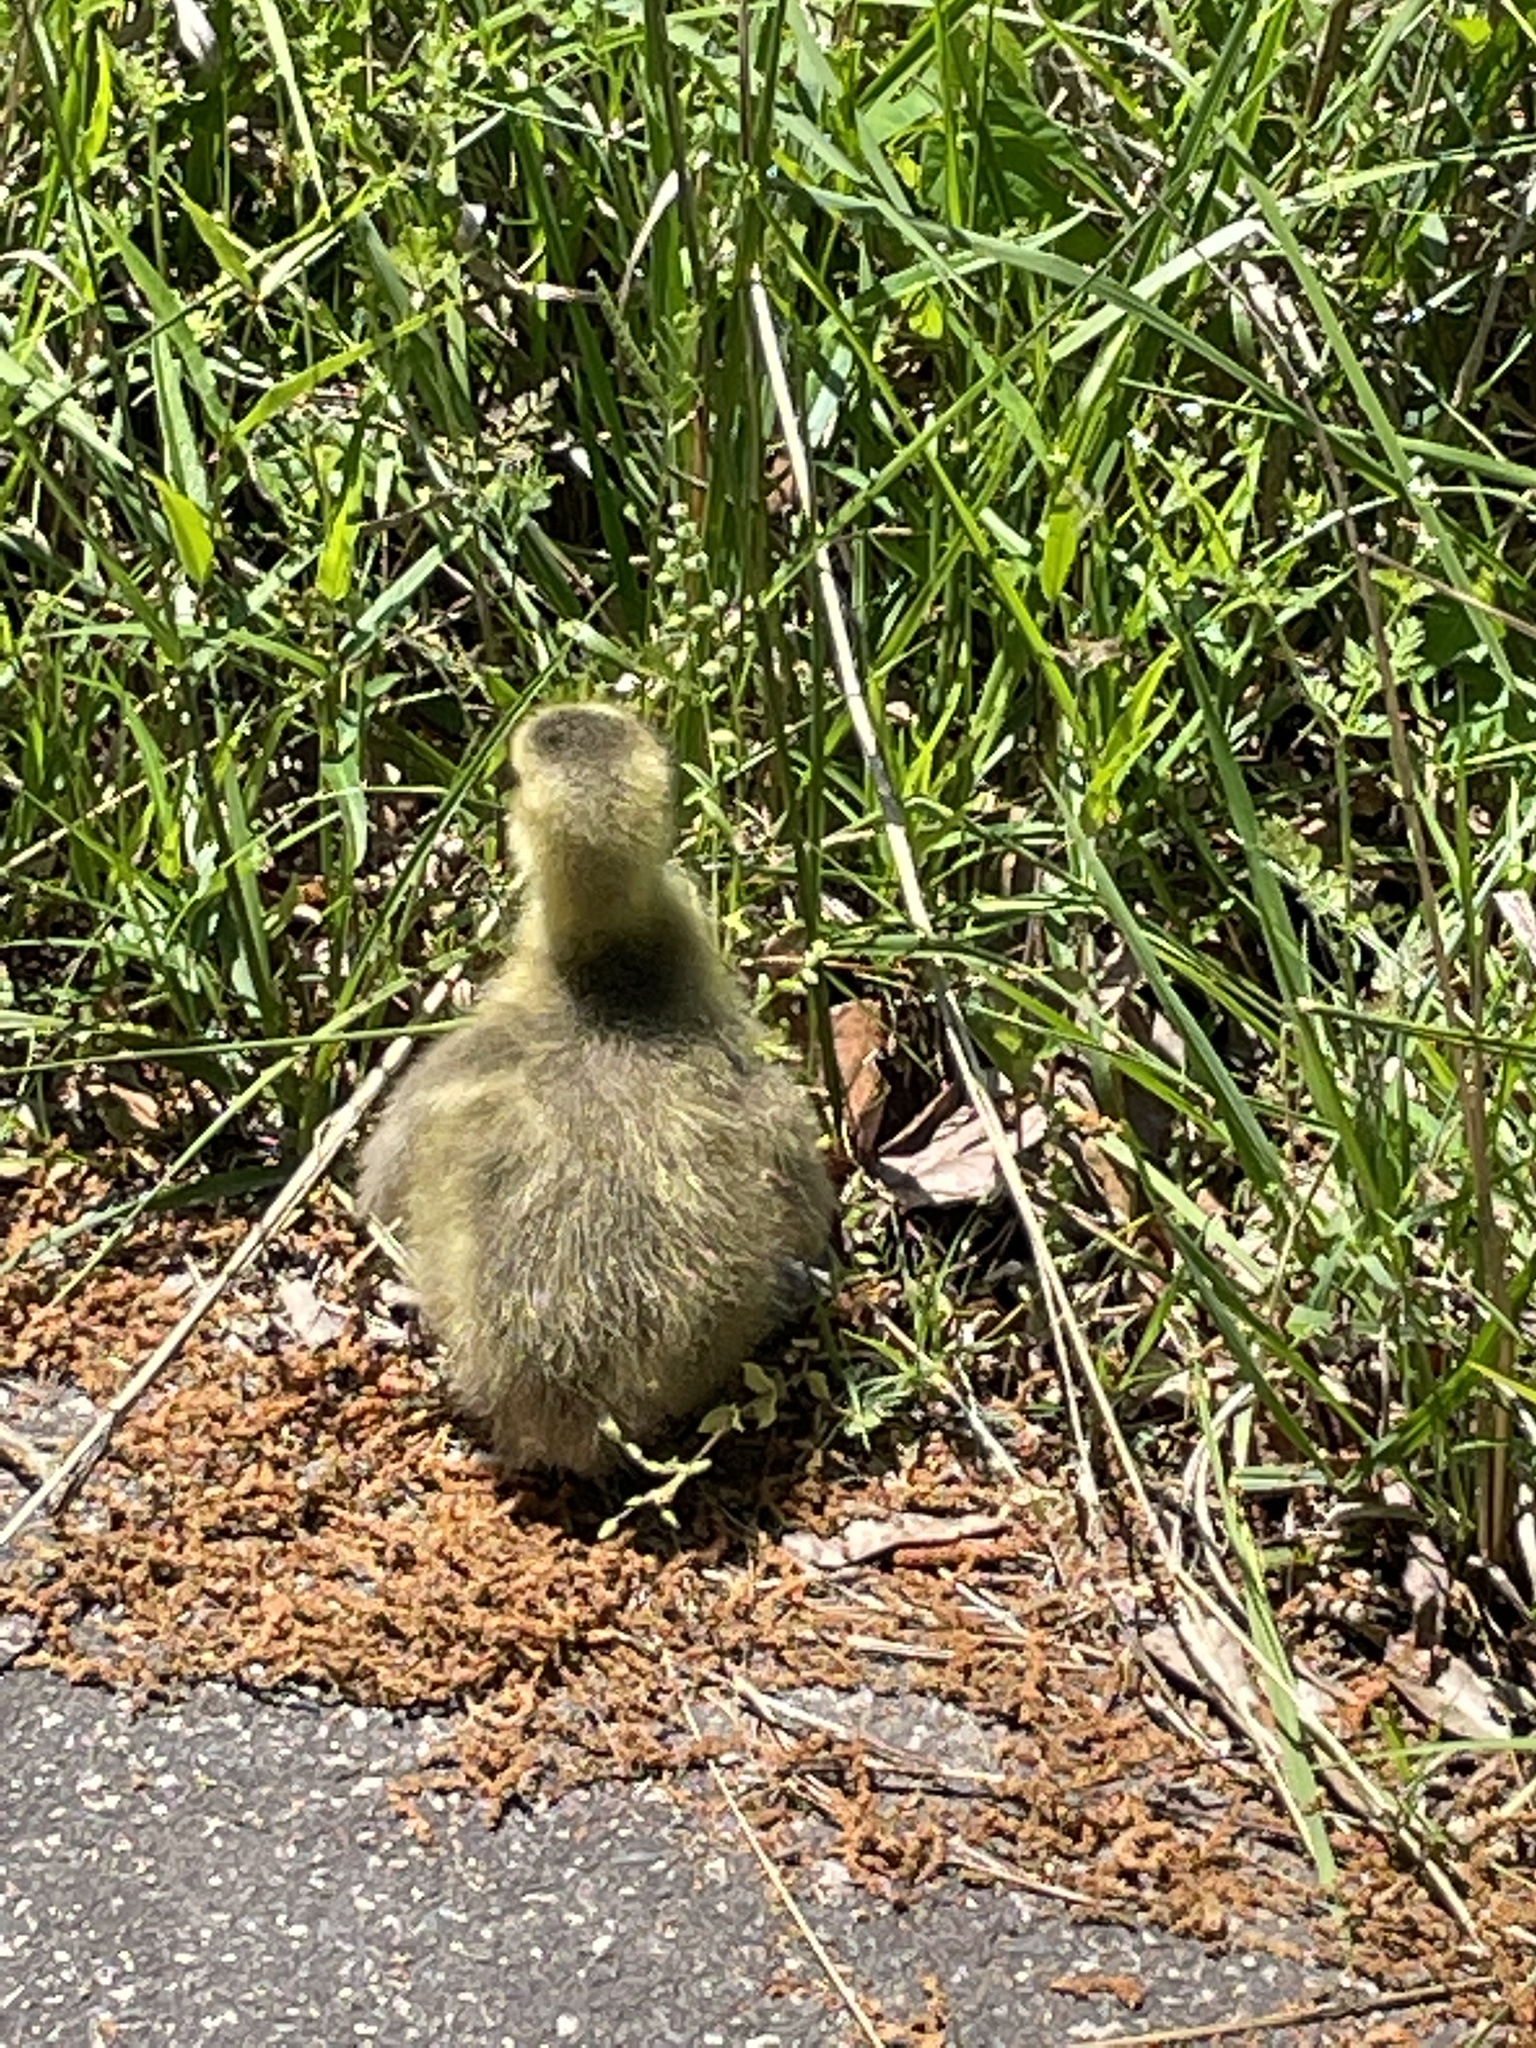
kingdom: Animalia
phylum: Chordata
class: Aves
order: Anseriformes
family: Anatidae
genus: Branta
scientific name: Branta canadensis
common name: Canada goose
